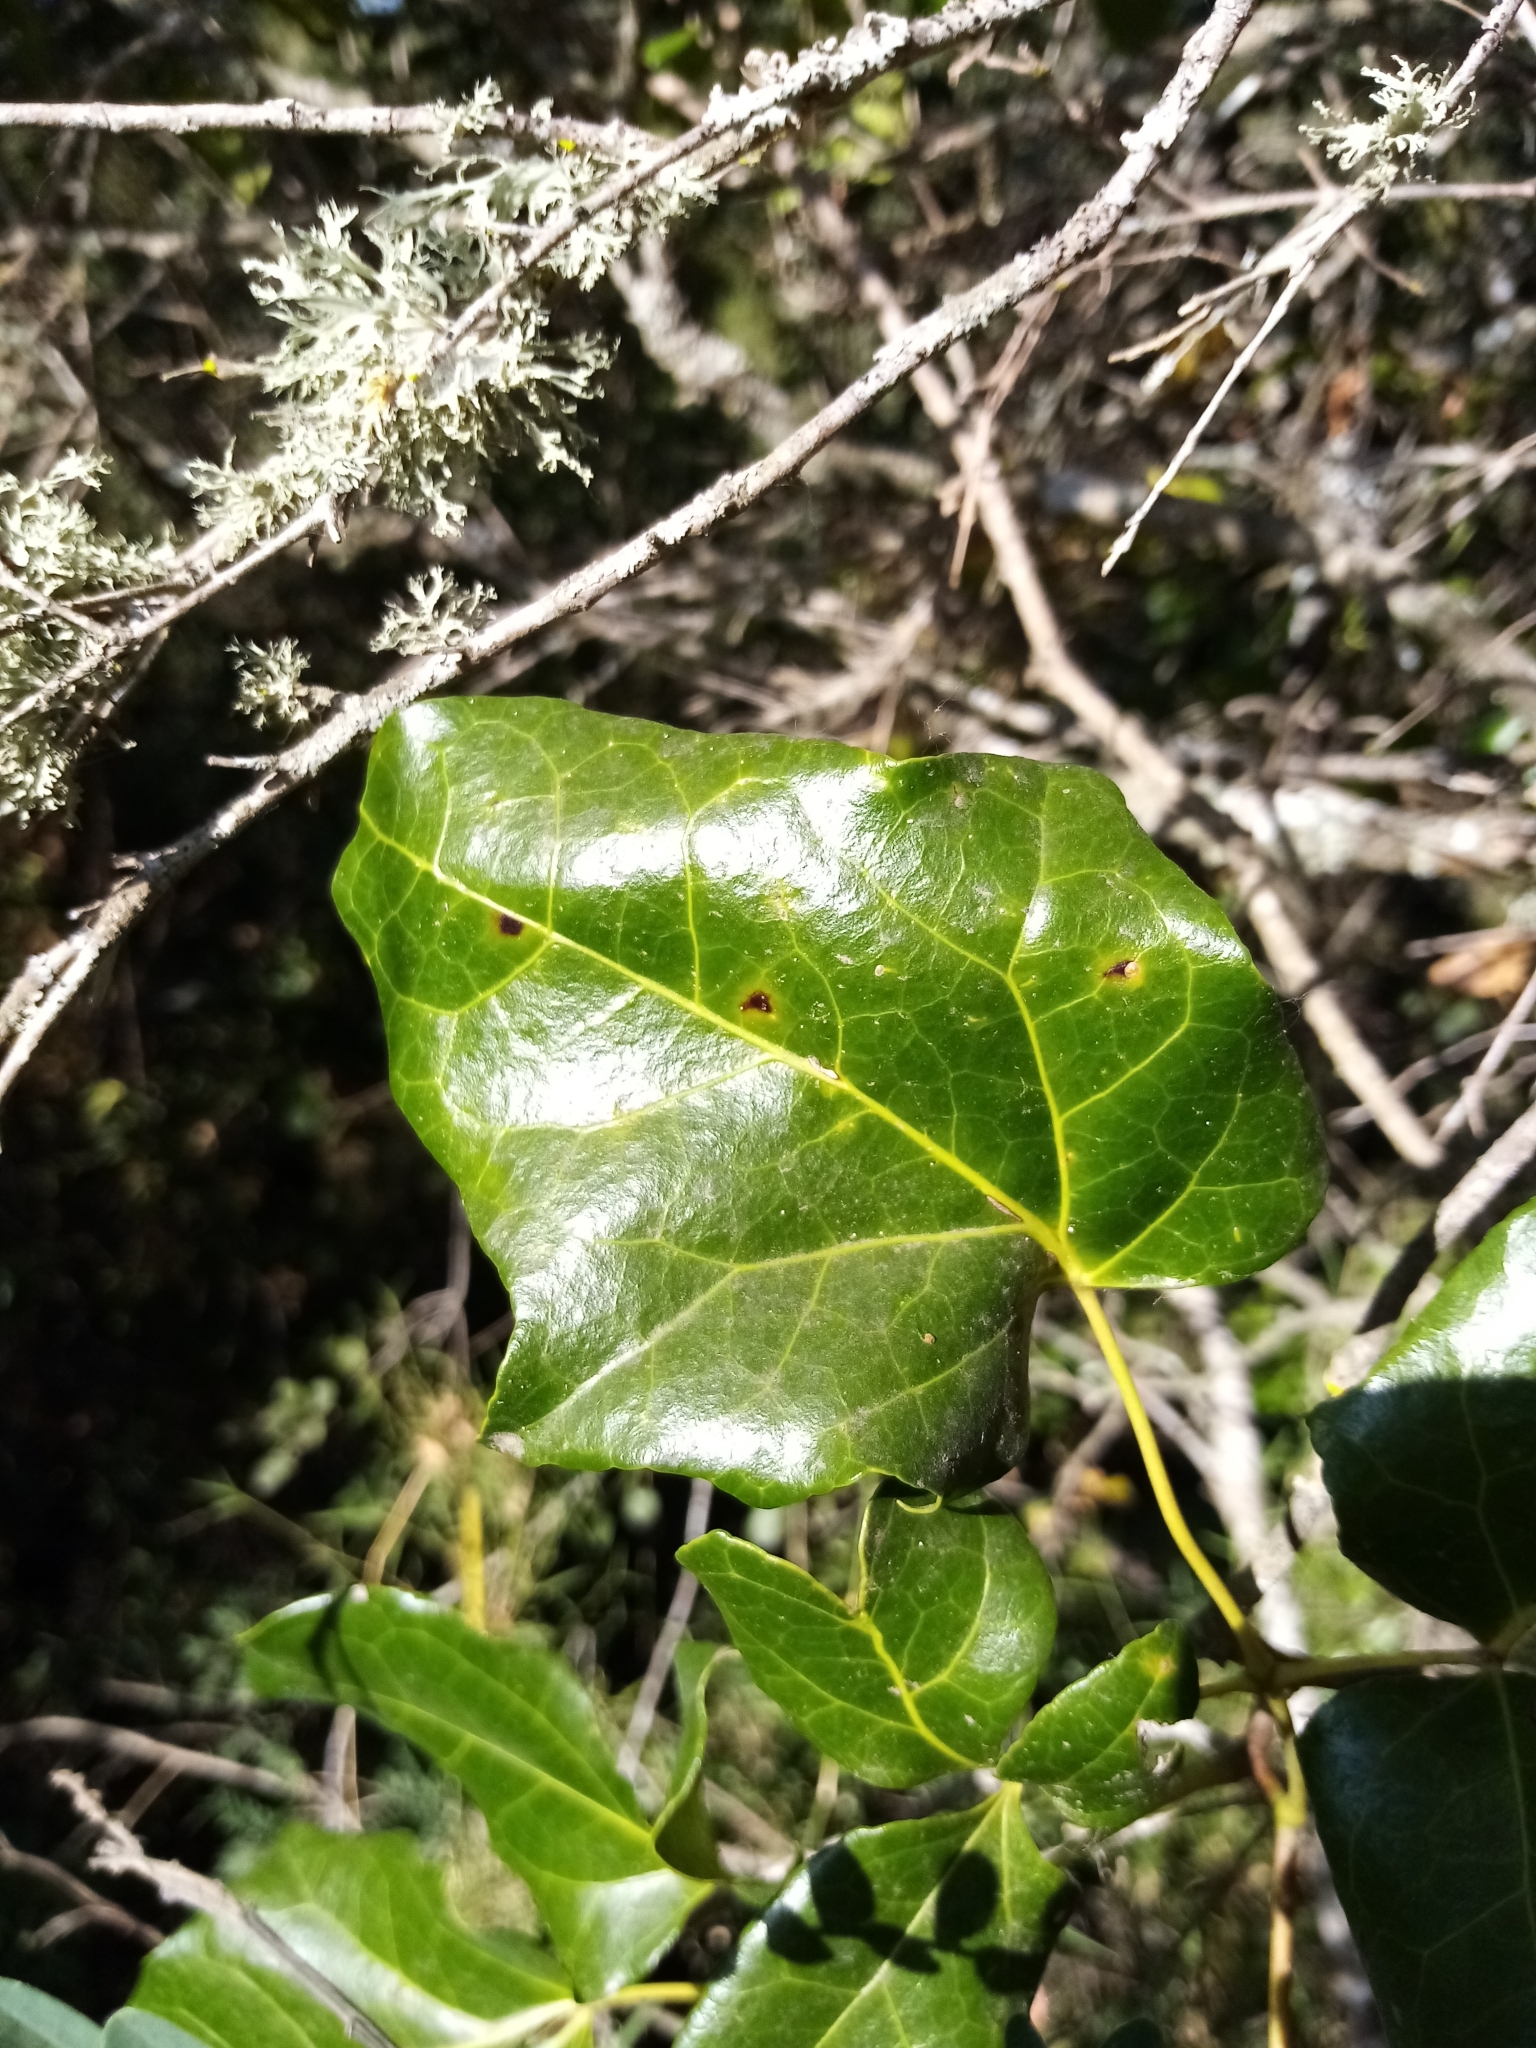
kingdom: Plantae
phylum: Tracheophyta
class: Magnoliopsida
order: Ranunculales
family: Lardizabalaceae
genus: Lardizabala
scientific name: Lardizabala funaria
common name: Zabala
